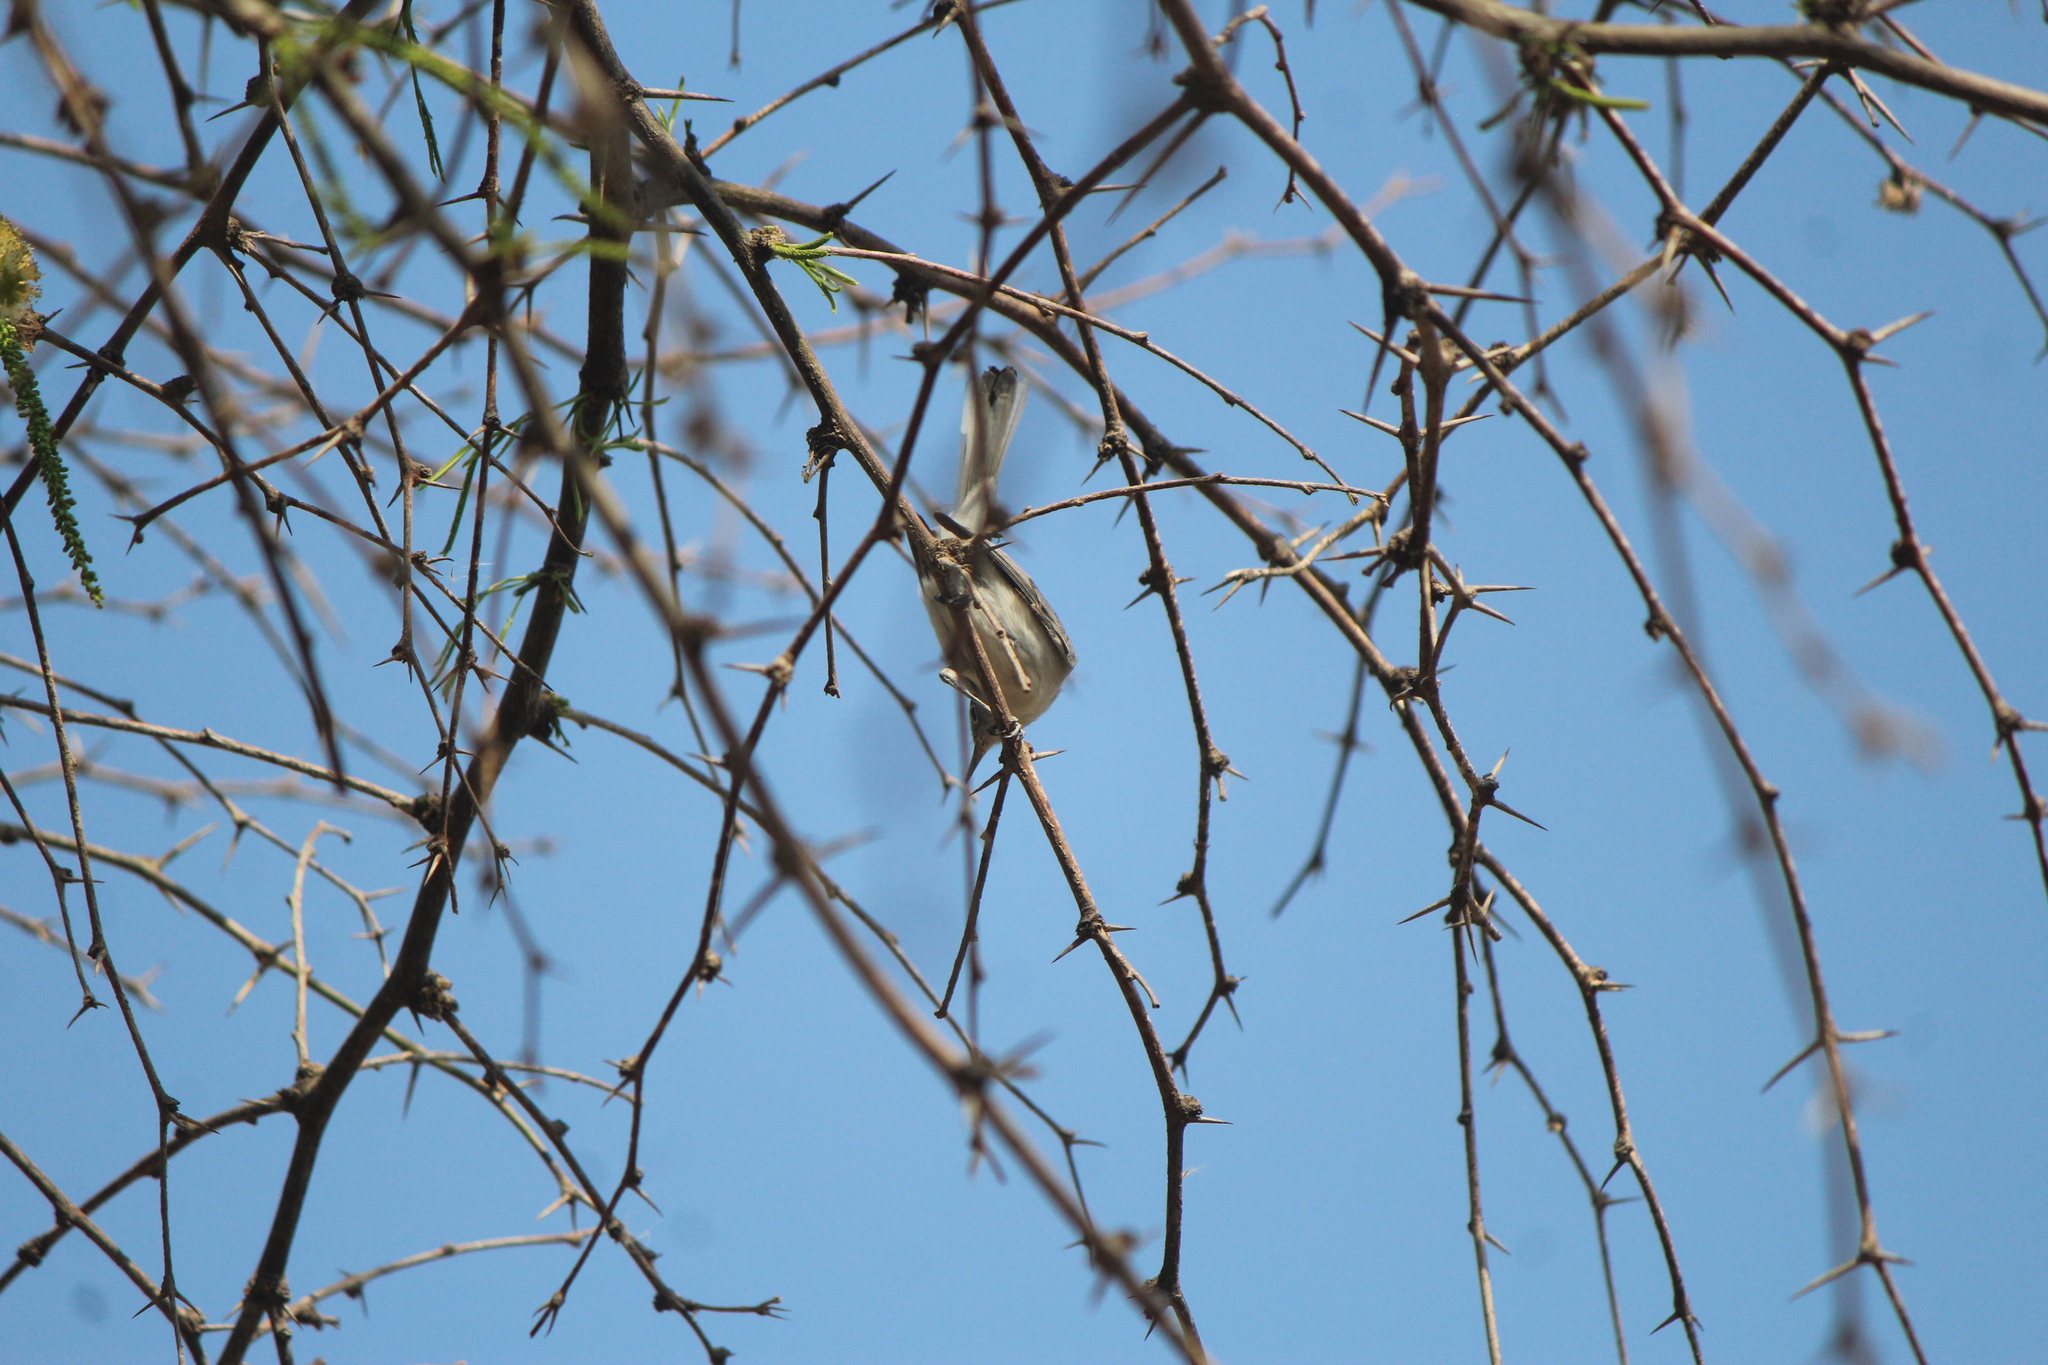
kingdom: Animalia
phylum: Chordata
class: Aves
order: Passeriformes
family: Polioptilidae
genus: Polioptila
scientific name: Polioptila caerulea
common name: Blue-gray gnatcatcher
